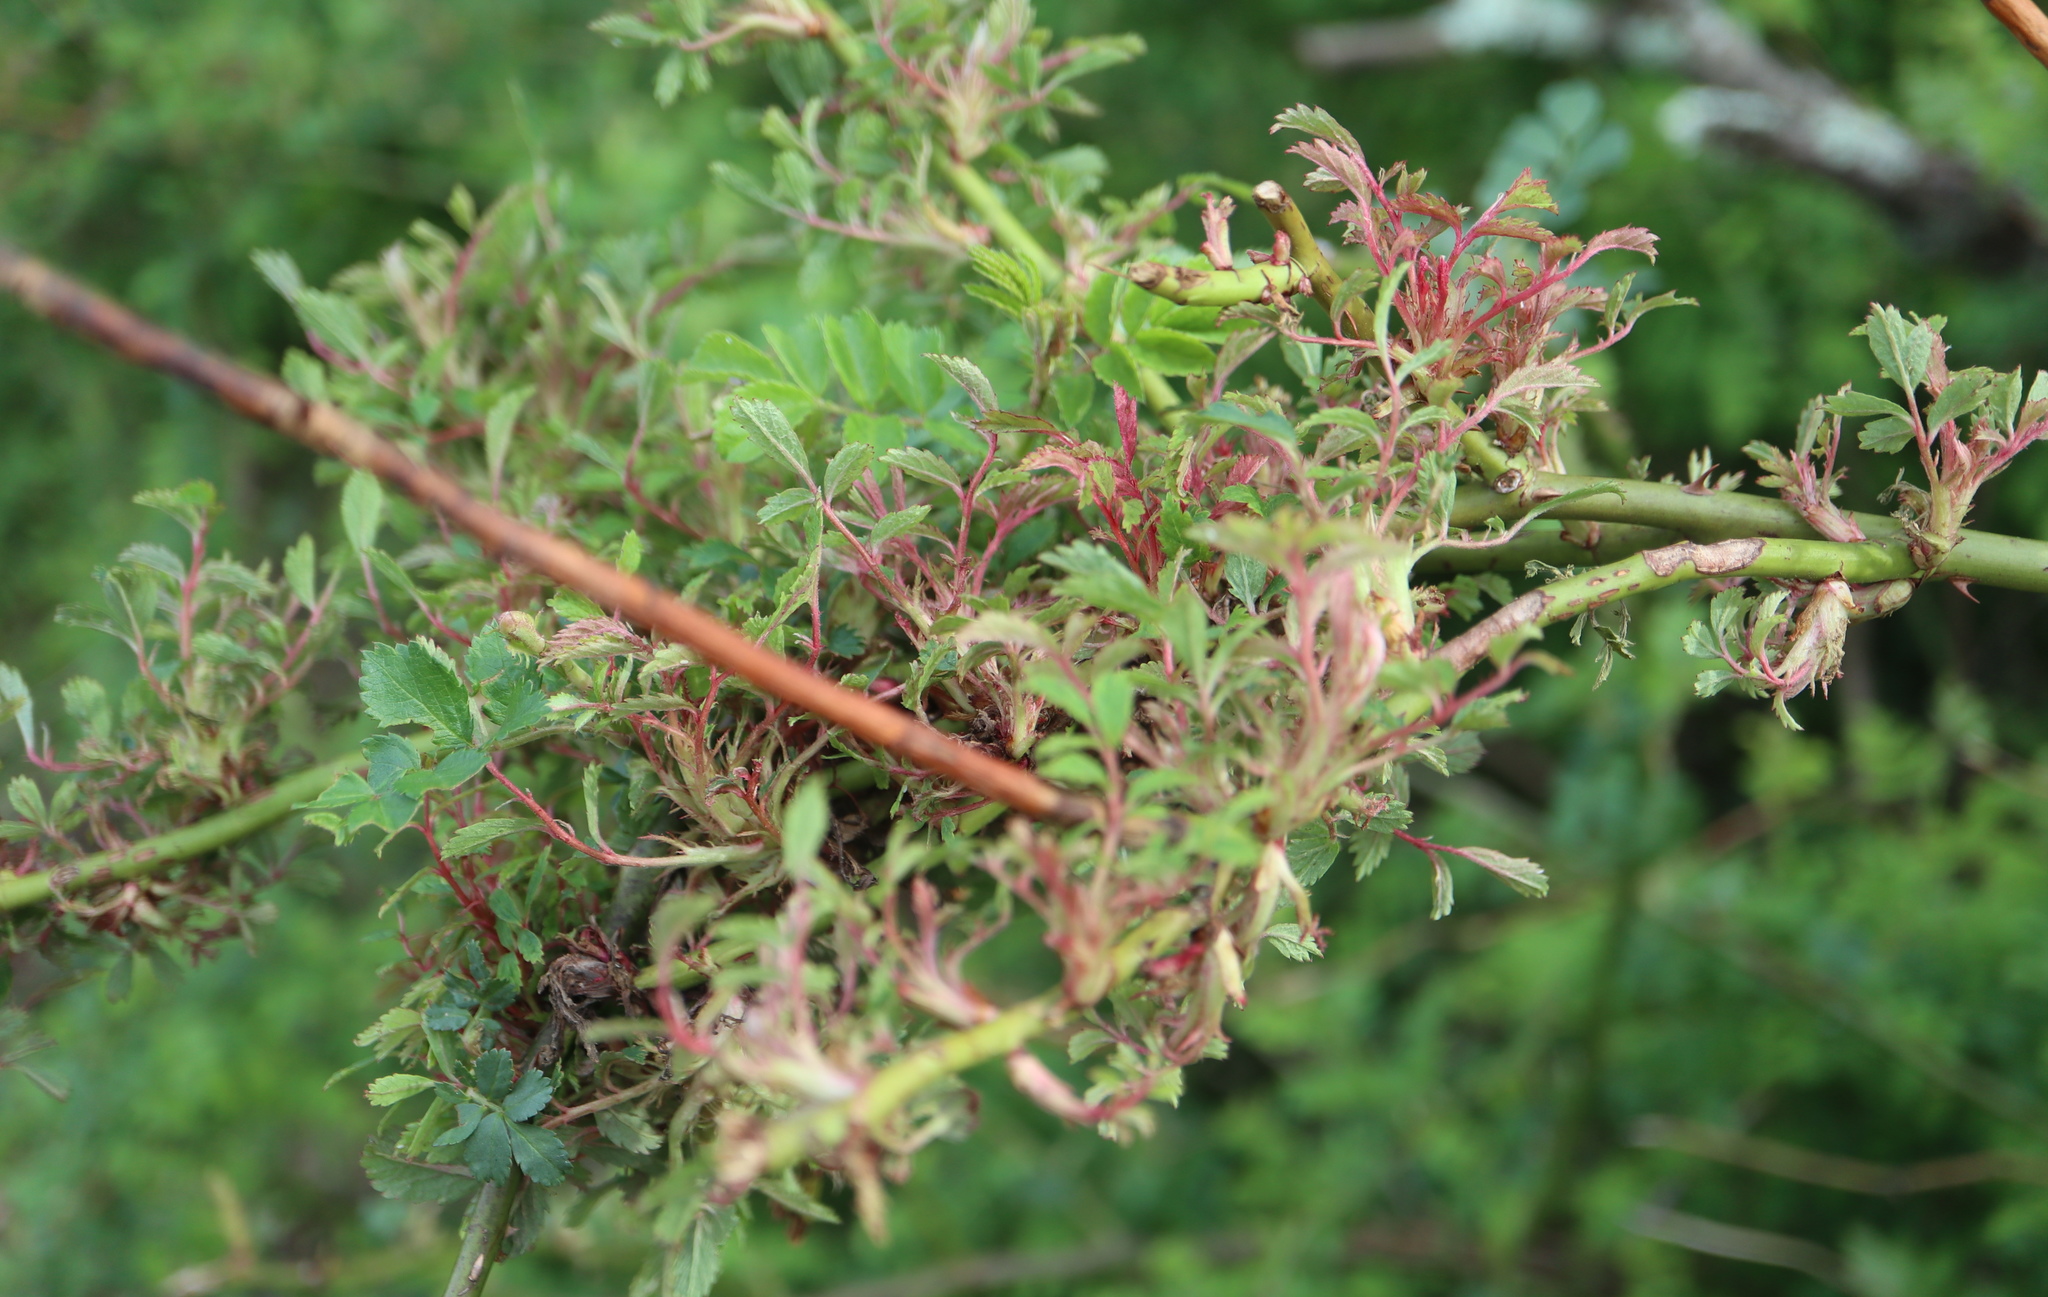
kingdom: Viruses
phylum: Negarnaviricota
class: Ellioviricetes
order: Bunyavirales
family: Fimoviridae
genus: Emaravirus
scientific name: Emaravirus rosae
